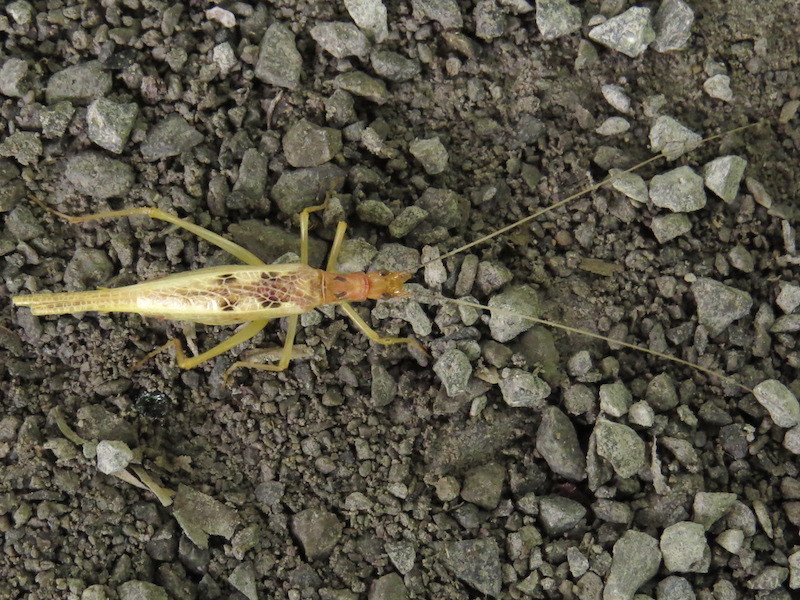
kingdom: Animalia
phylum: Arthropoda
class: Insecta
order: Orthoptera
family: Gryllidae
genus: Neoxabea
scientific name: Neoxabea bipunctata
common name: Two-spotted tree cricket
